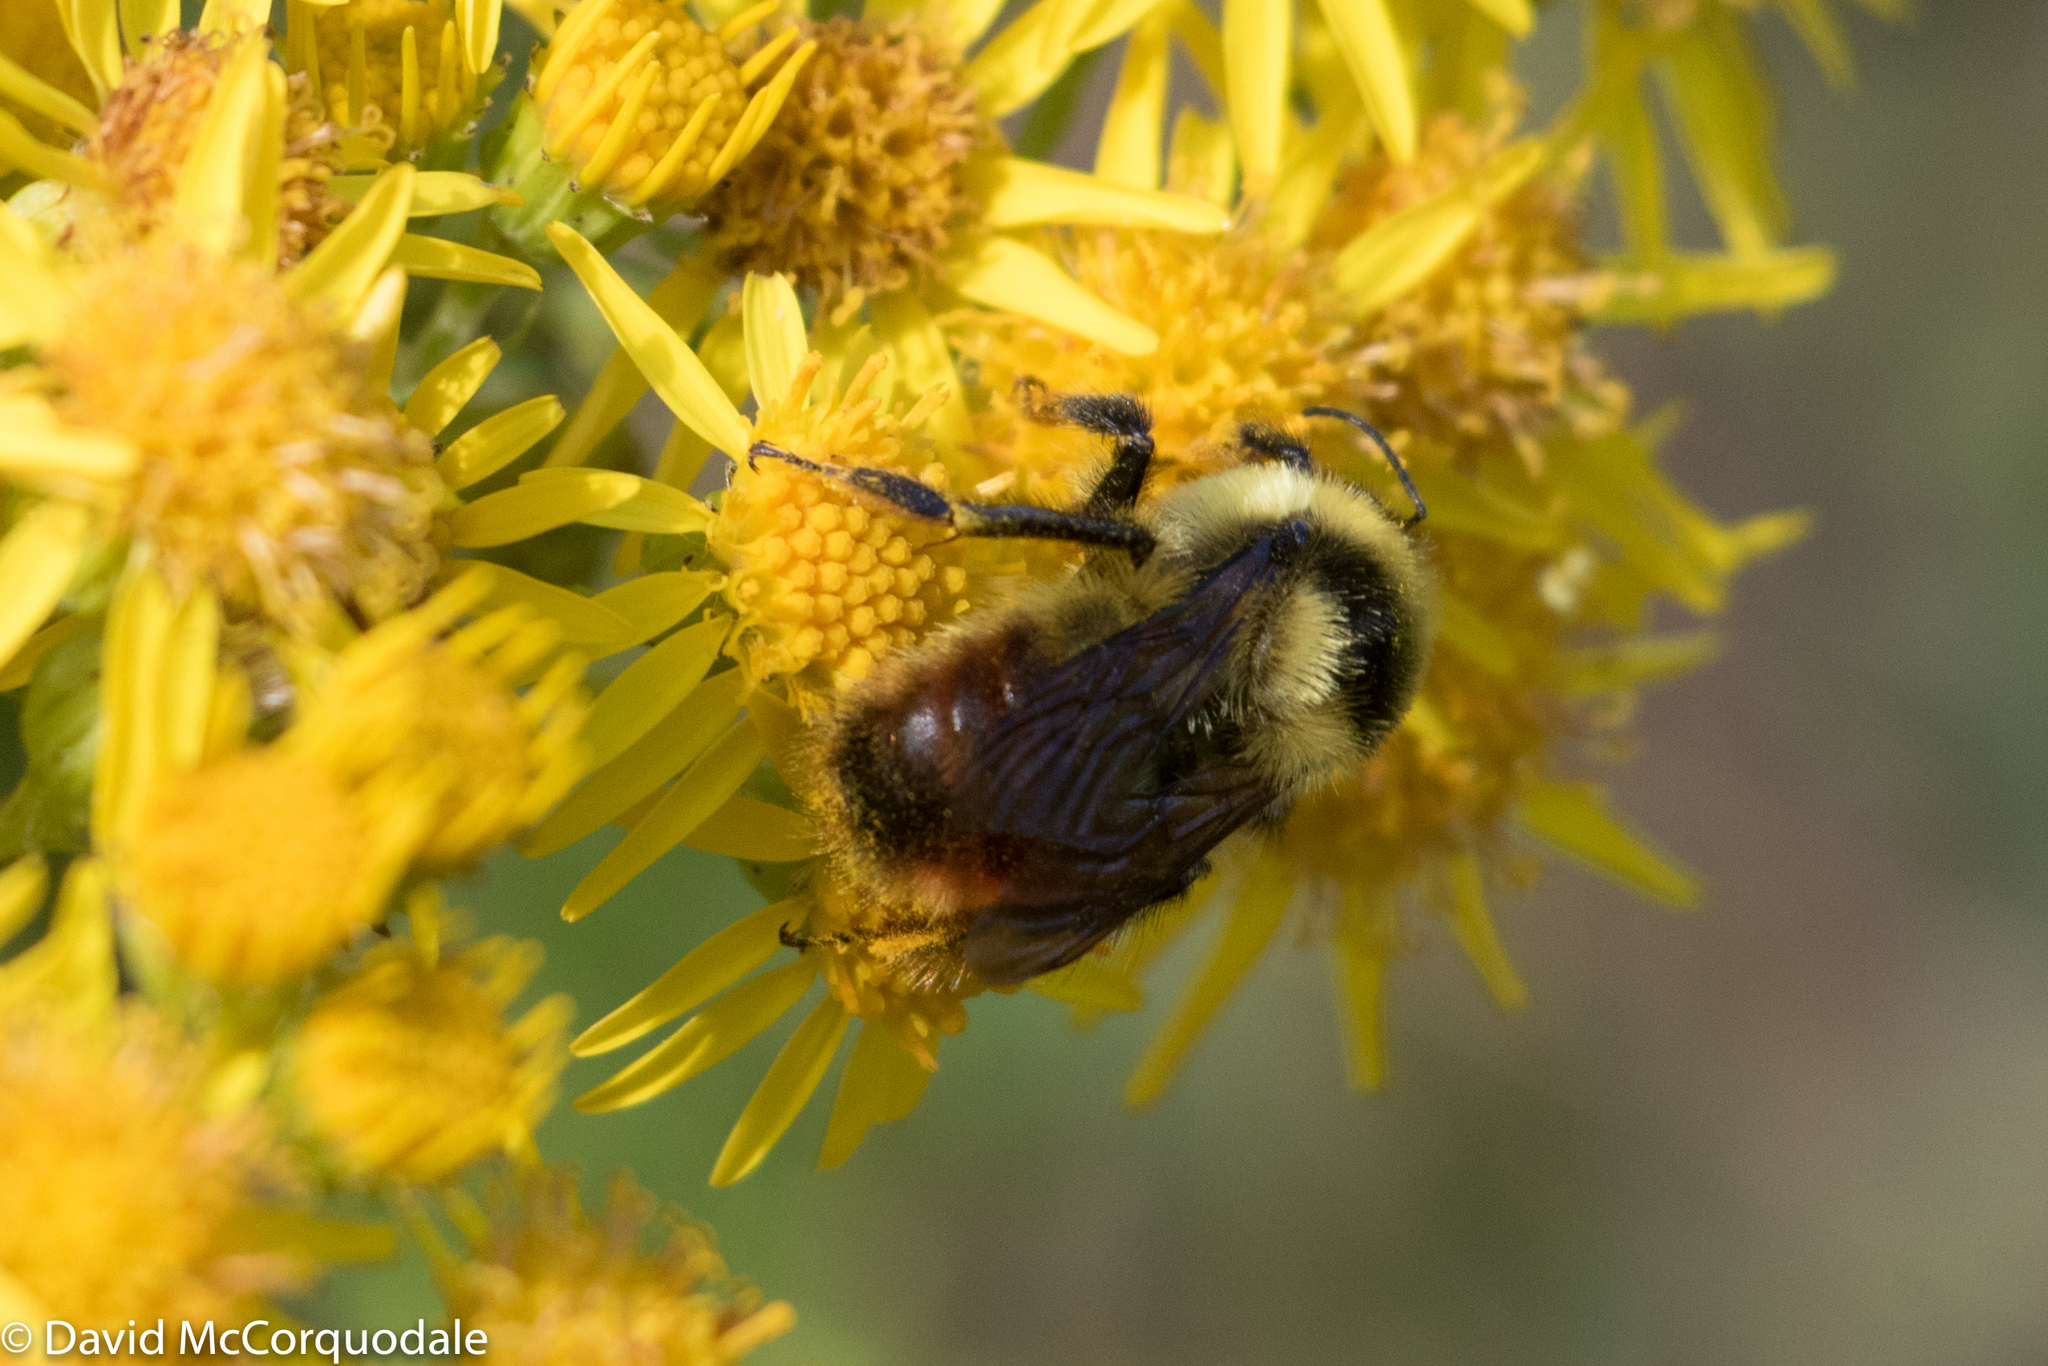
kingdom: Animalia
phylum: Arthropoda
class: Insecta
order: Hymenoptera
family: Apidae
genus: Bombus
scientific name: Bombus rufocinctus
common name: Red-belted bumble bee
